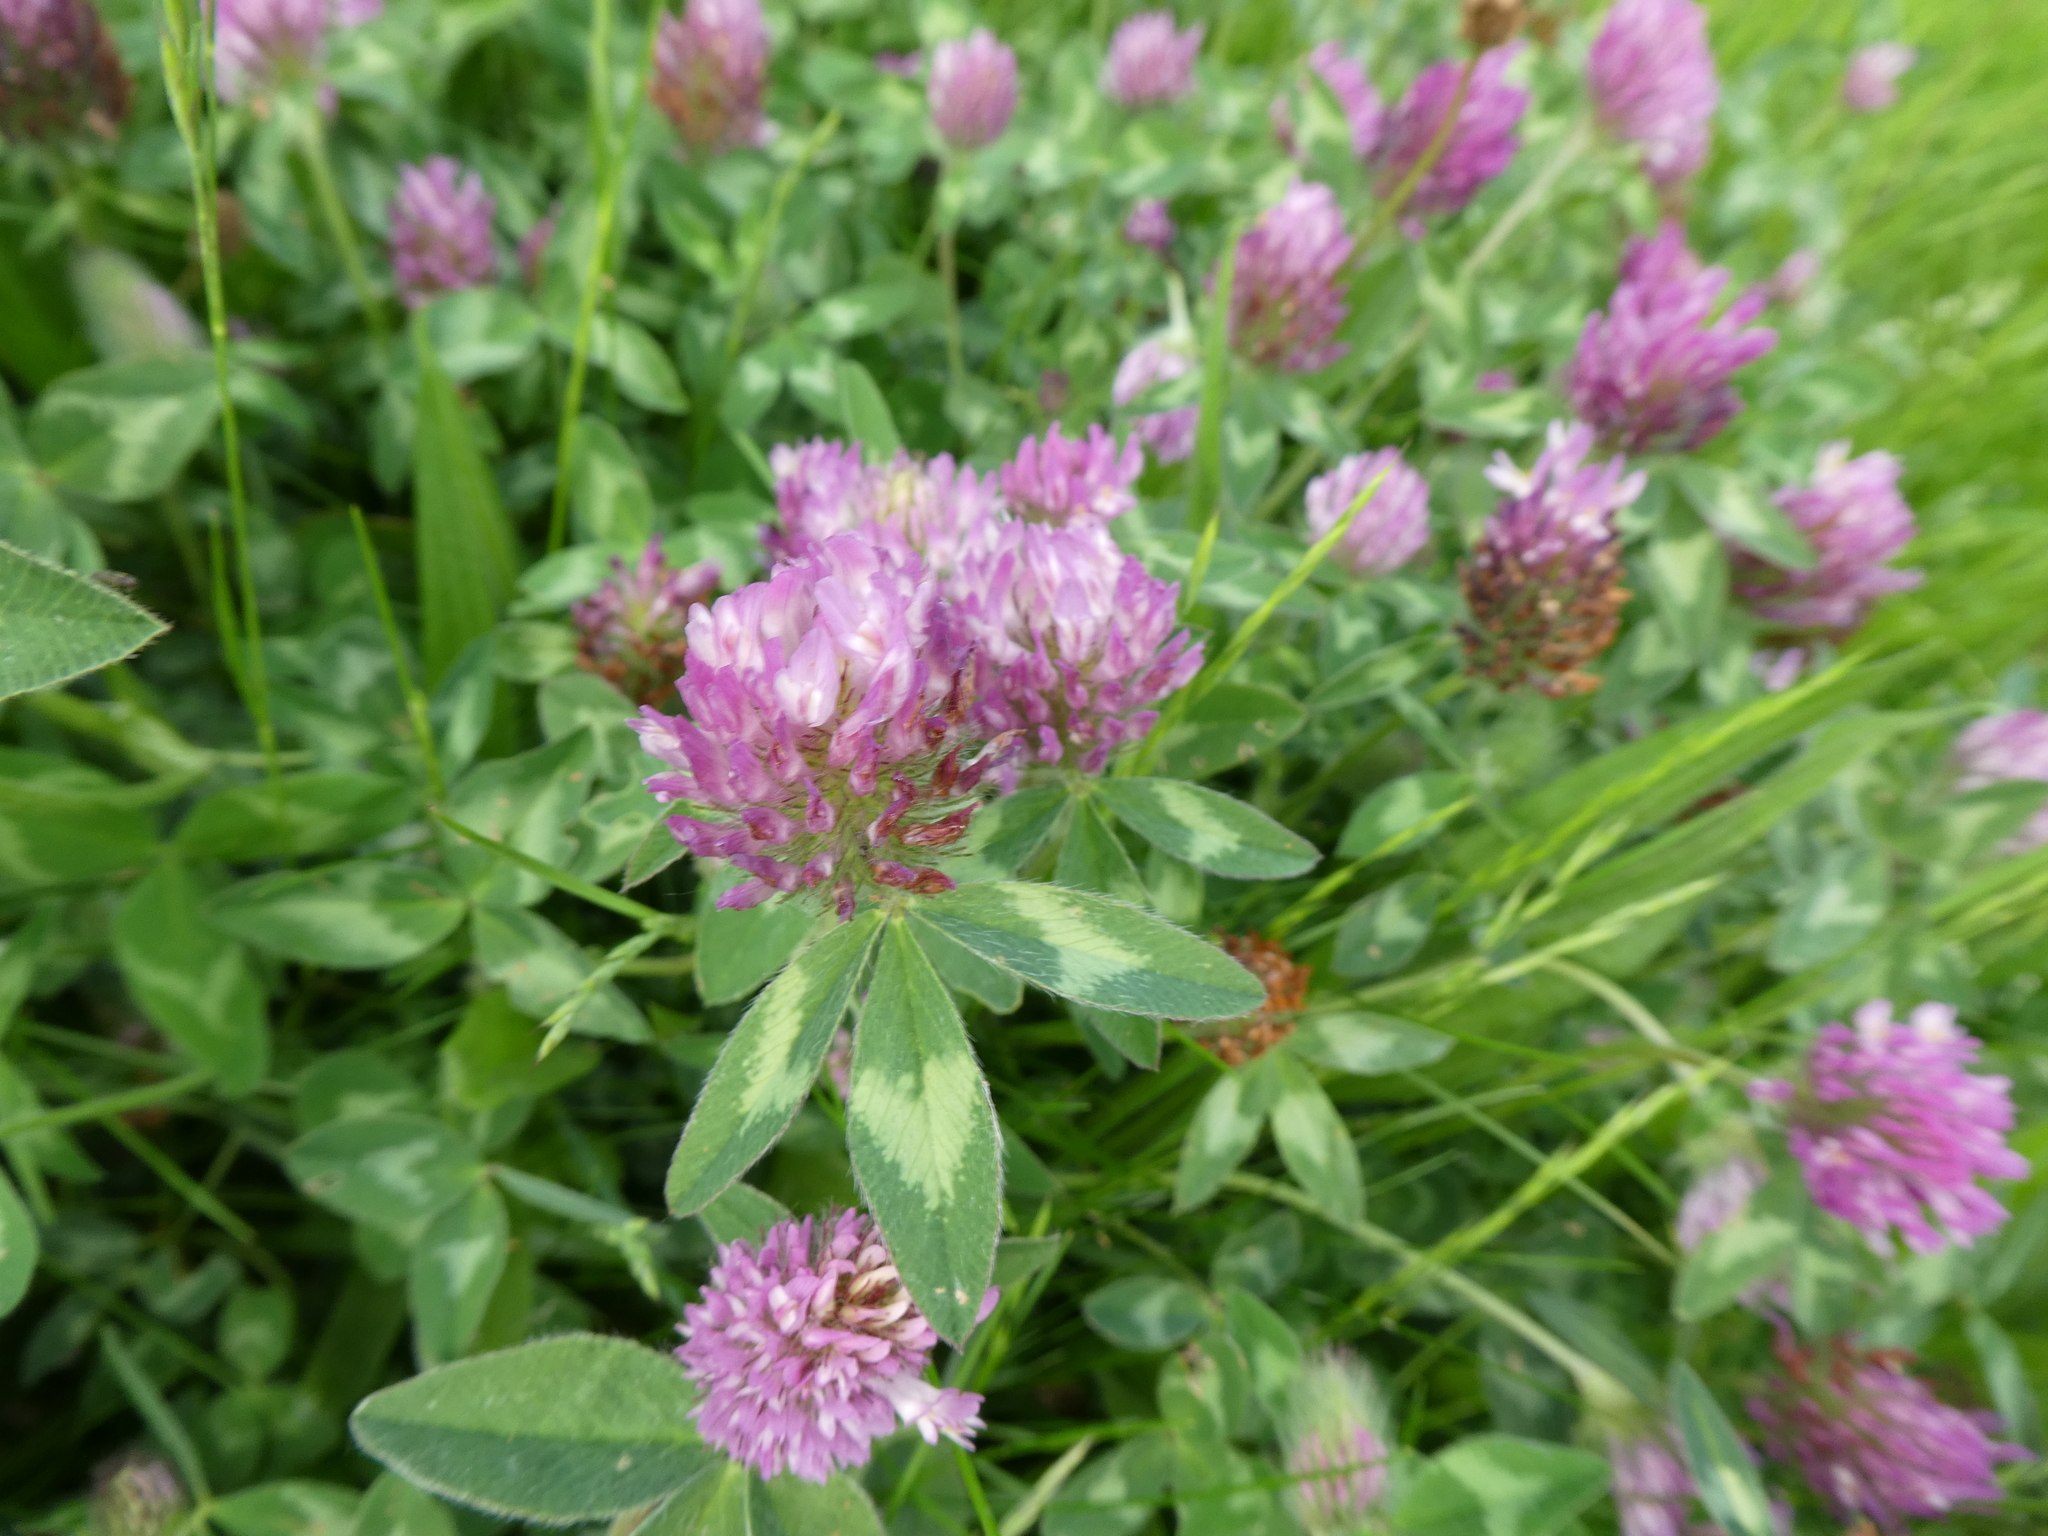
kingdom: Plantae
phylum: Tracheophyta
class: Magnoliopsida
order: Fabales
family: Fabaceae
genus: Trifolium
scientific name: Trifolium pratense
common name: Red clover
